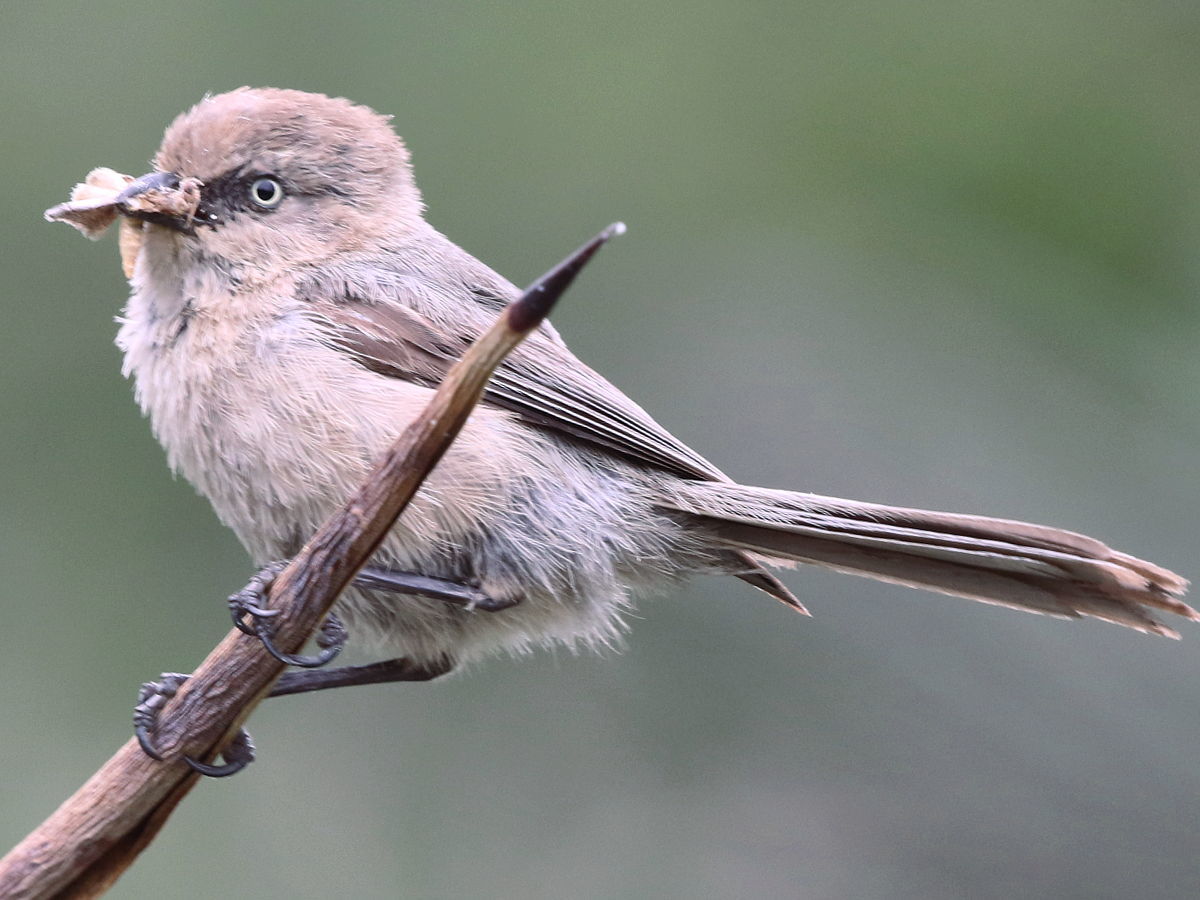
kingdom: Animalia
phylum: Chordata
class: Aves
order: Passeriformes
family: Aegithalidae
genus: Psaltriparus
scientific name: Psaltriparus minimus
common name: American bushtit
